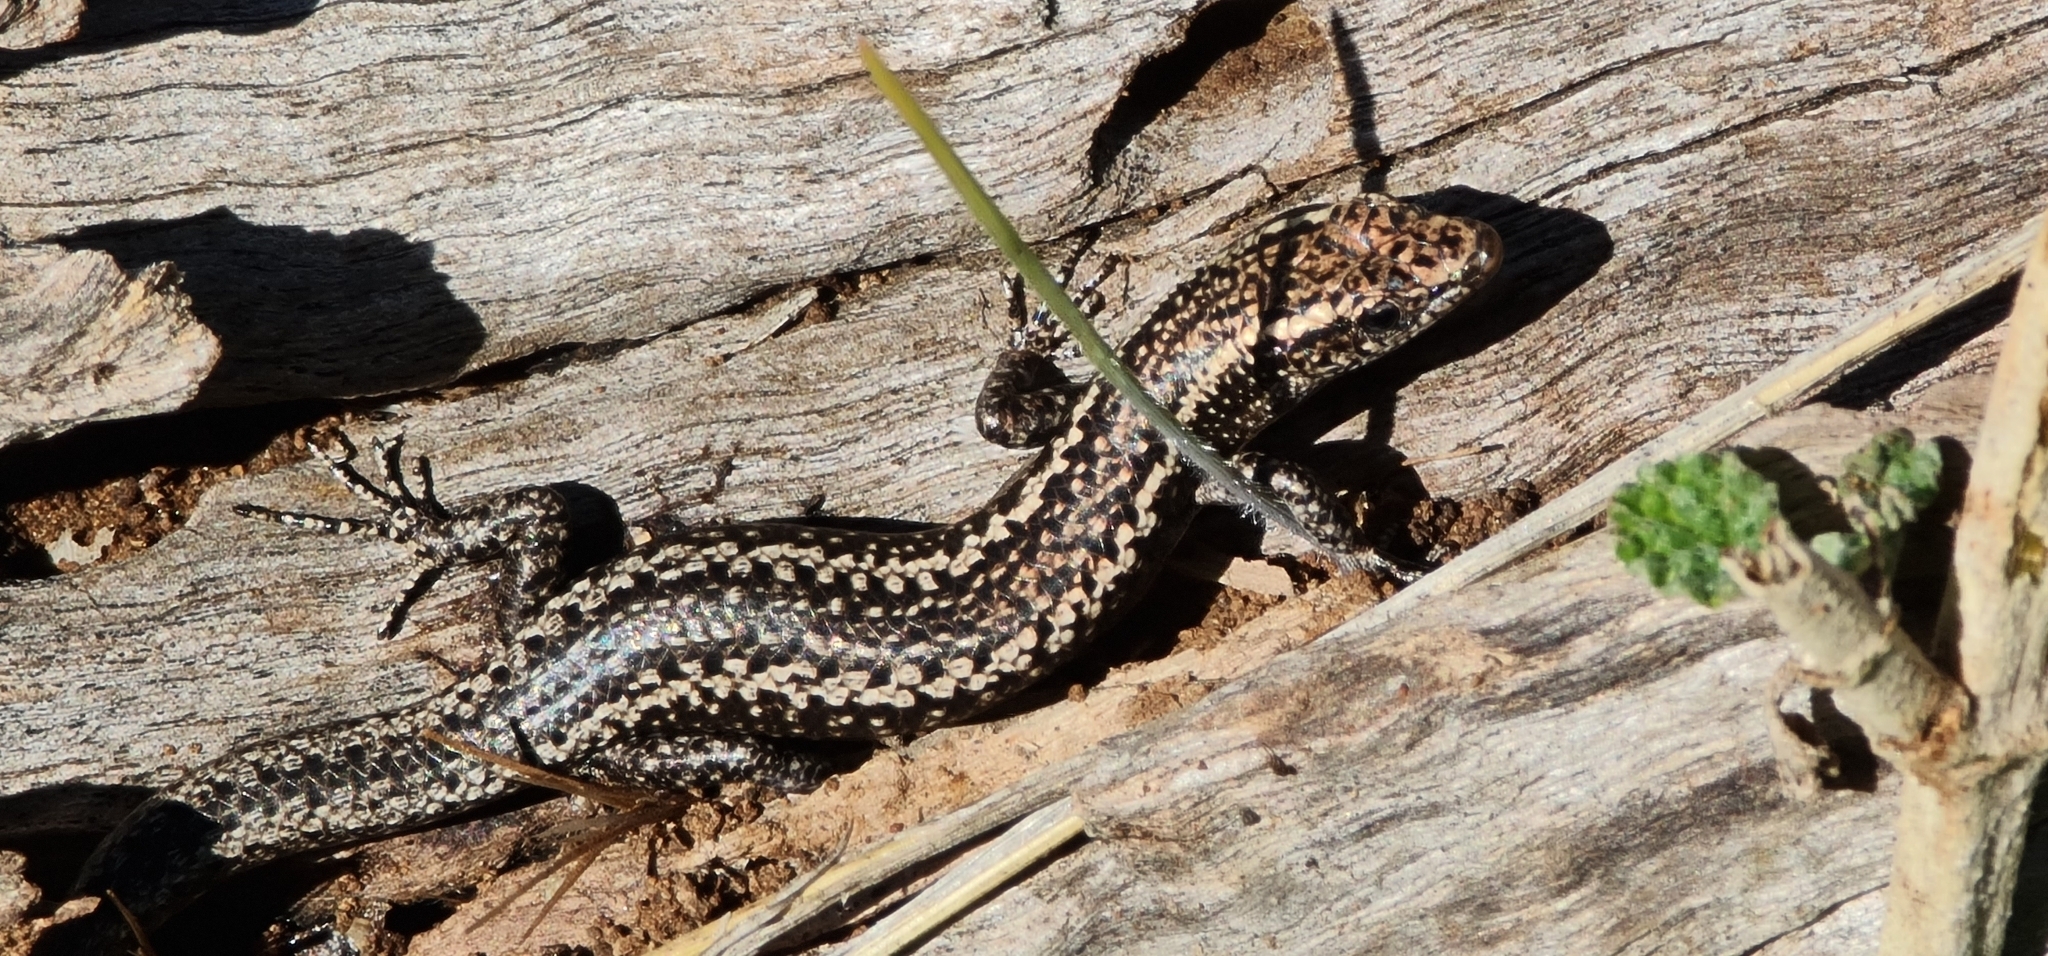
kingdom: Animalia
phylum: Chordata
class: Squamata
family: Scincidae
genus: Cryptoblepharus
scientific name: Cryptoblepharus pannosus
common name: Ragged snake-eyed skink
